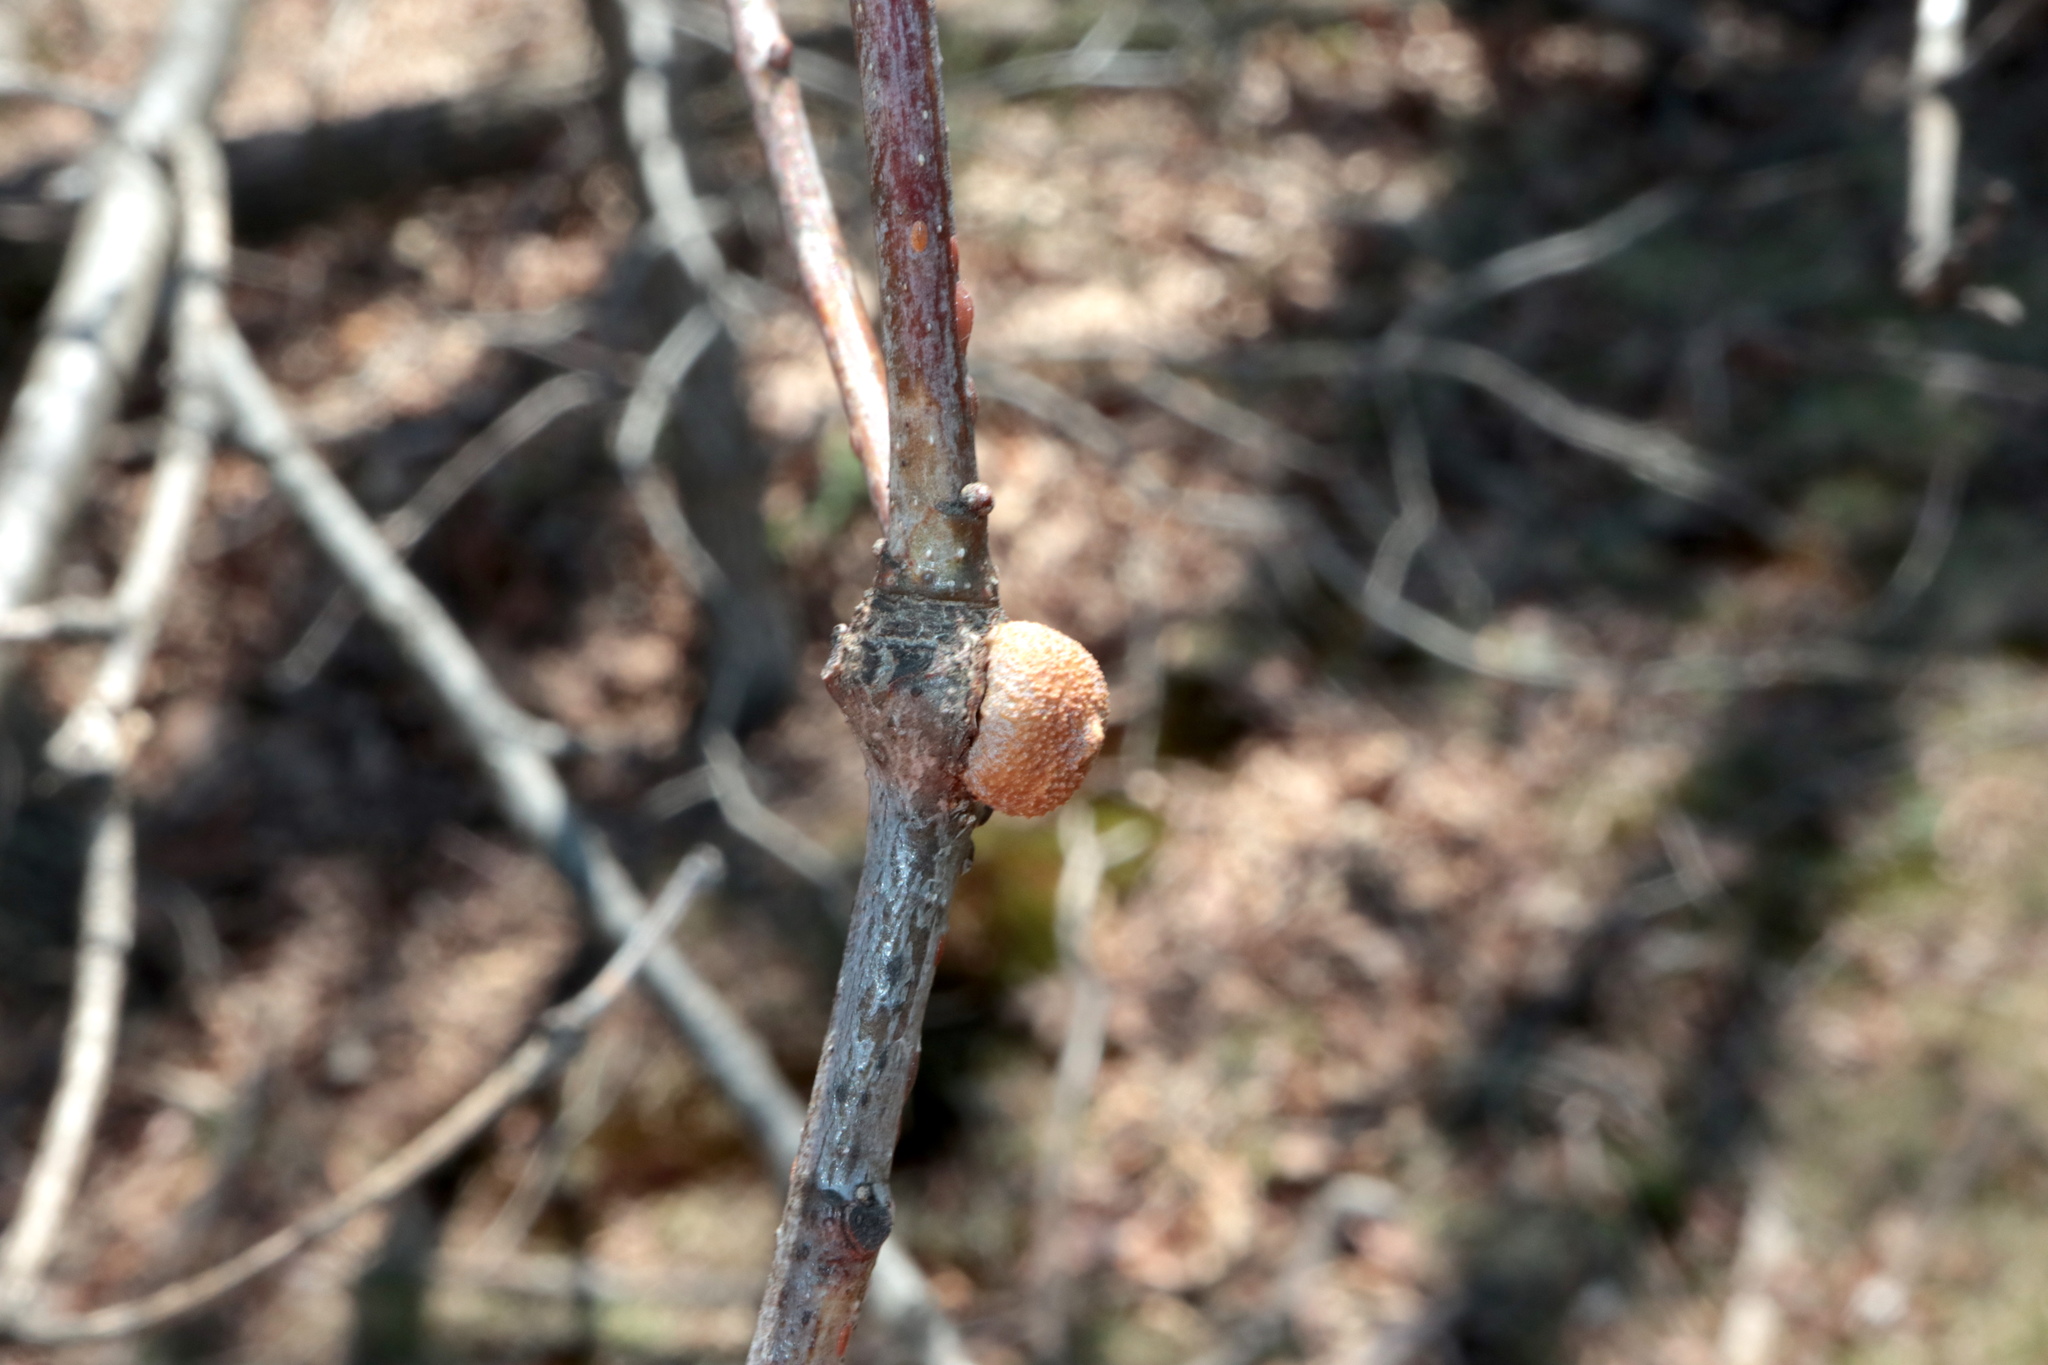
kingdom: Animalia
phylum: Arthropoda
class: Insecta
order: Hymenoptera
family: Cynipidae
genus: Disholcaspis
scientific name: Disholcaspis quercusglobulus
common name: Round bullet gall wasp
